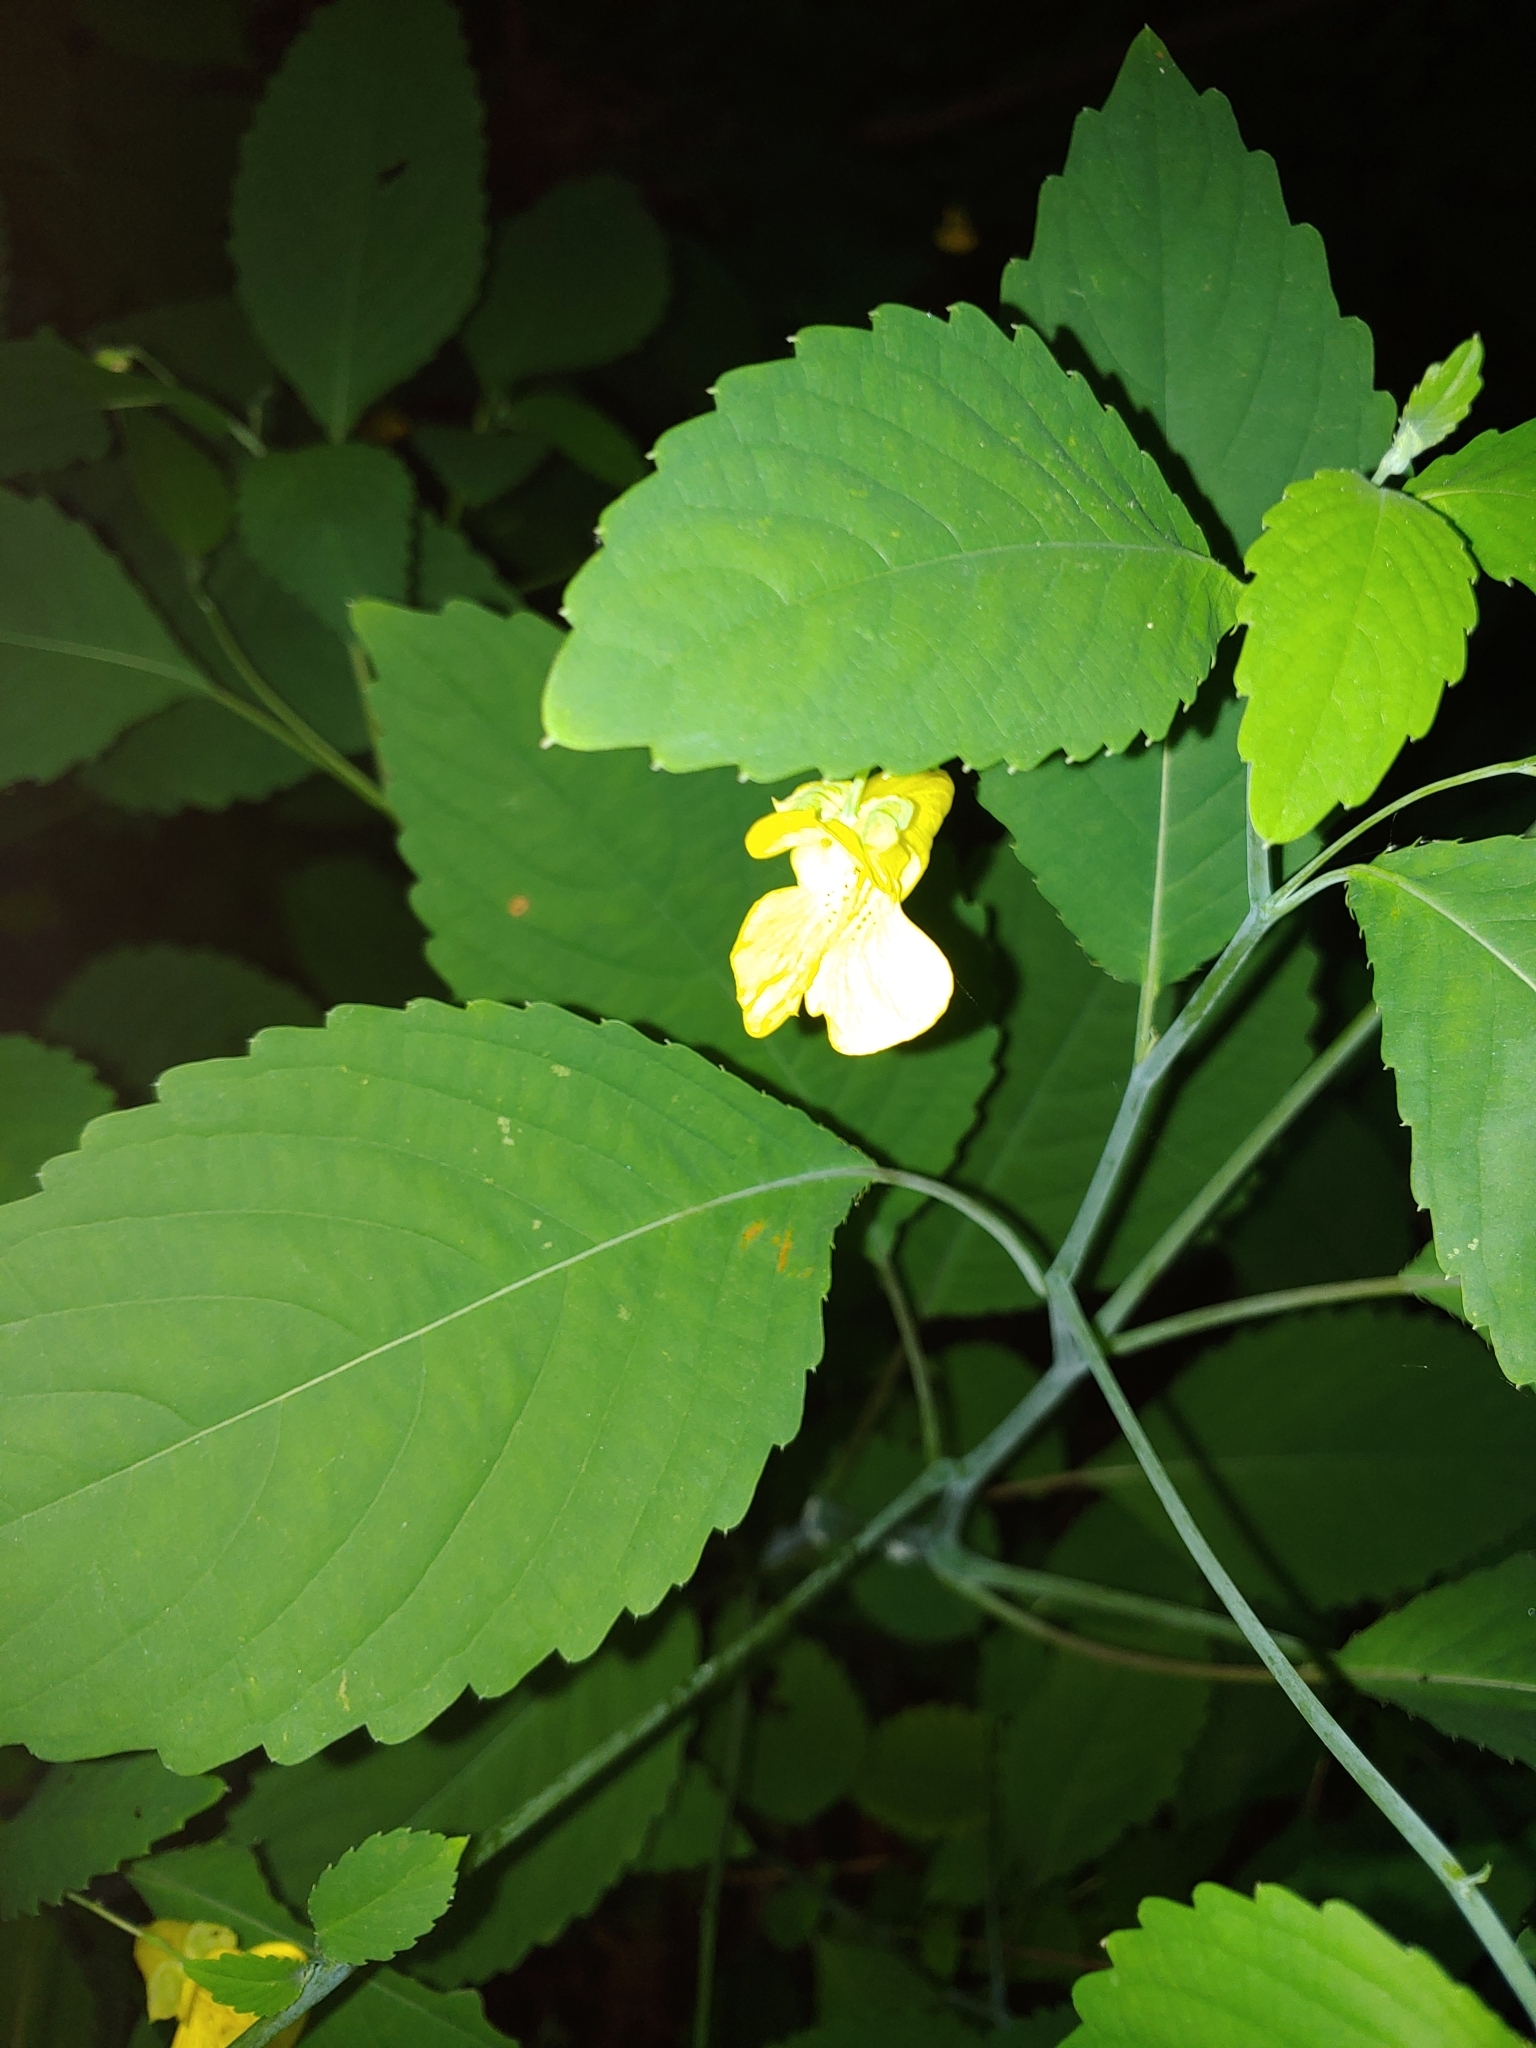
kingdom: Plantae
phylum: Tracheophyta
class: Magnoliopsida
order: Ericales
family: Balsaminaceae
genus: Impatiens
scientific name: Impatiens pallida
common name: Pale snapweed
